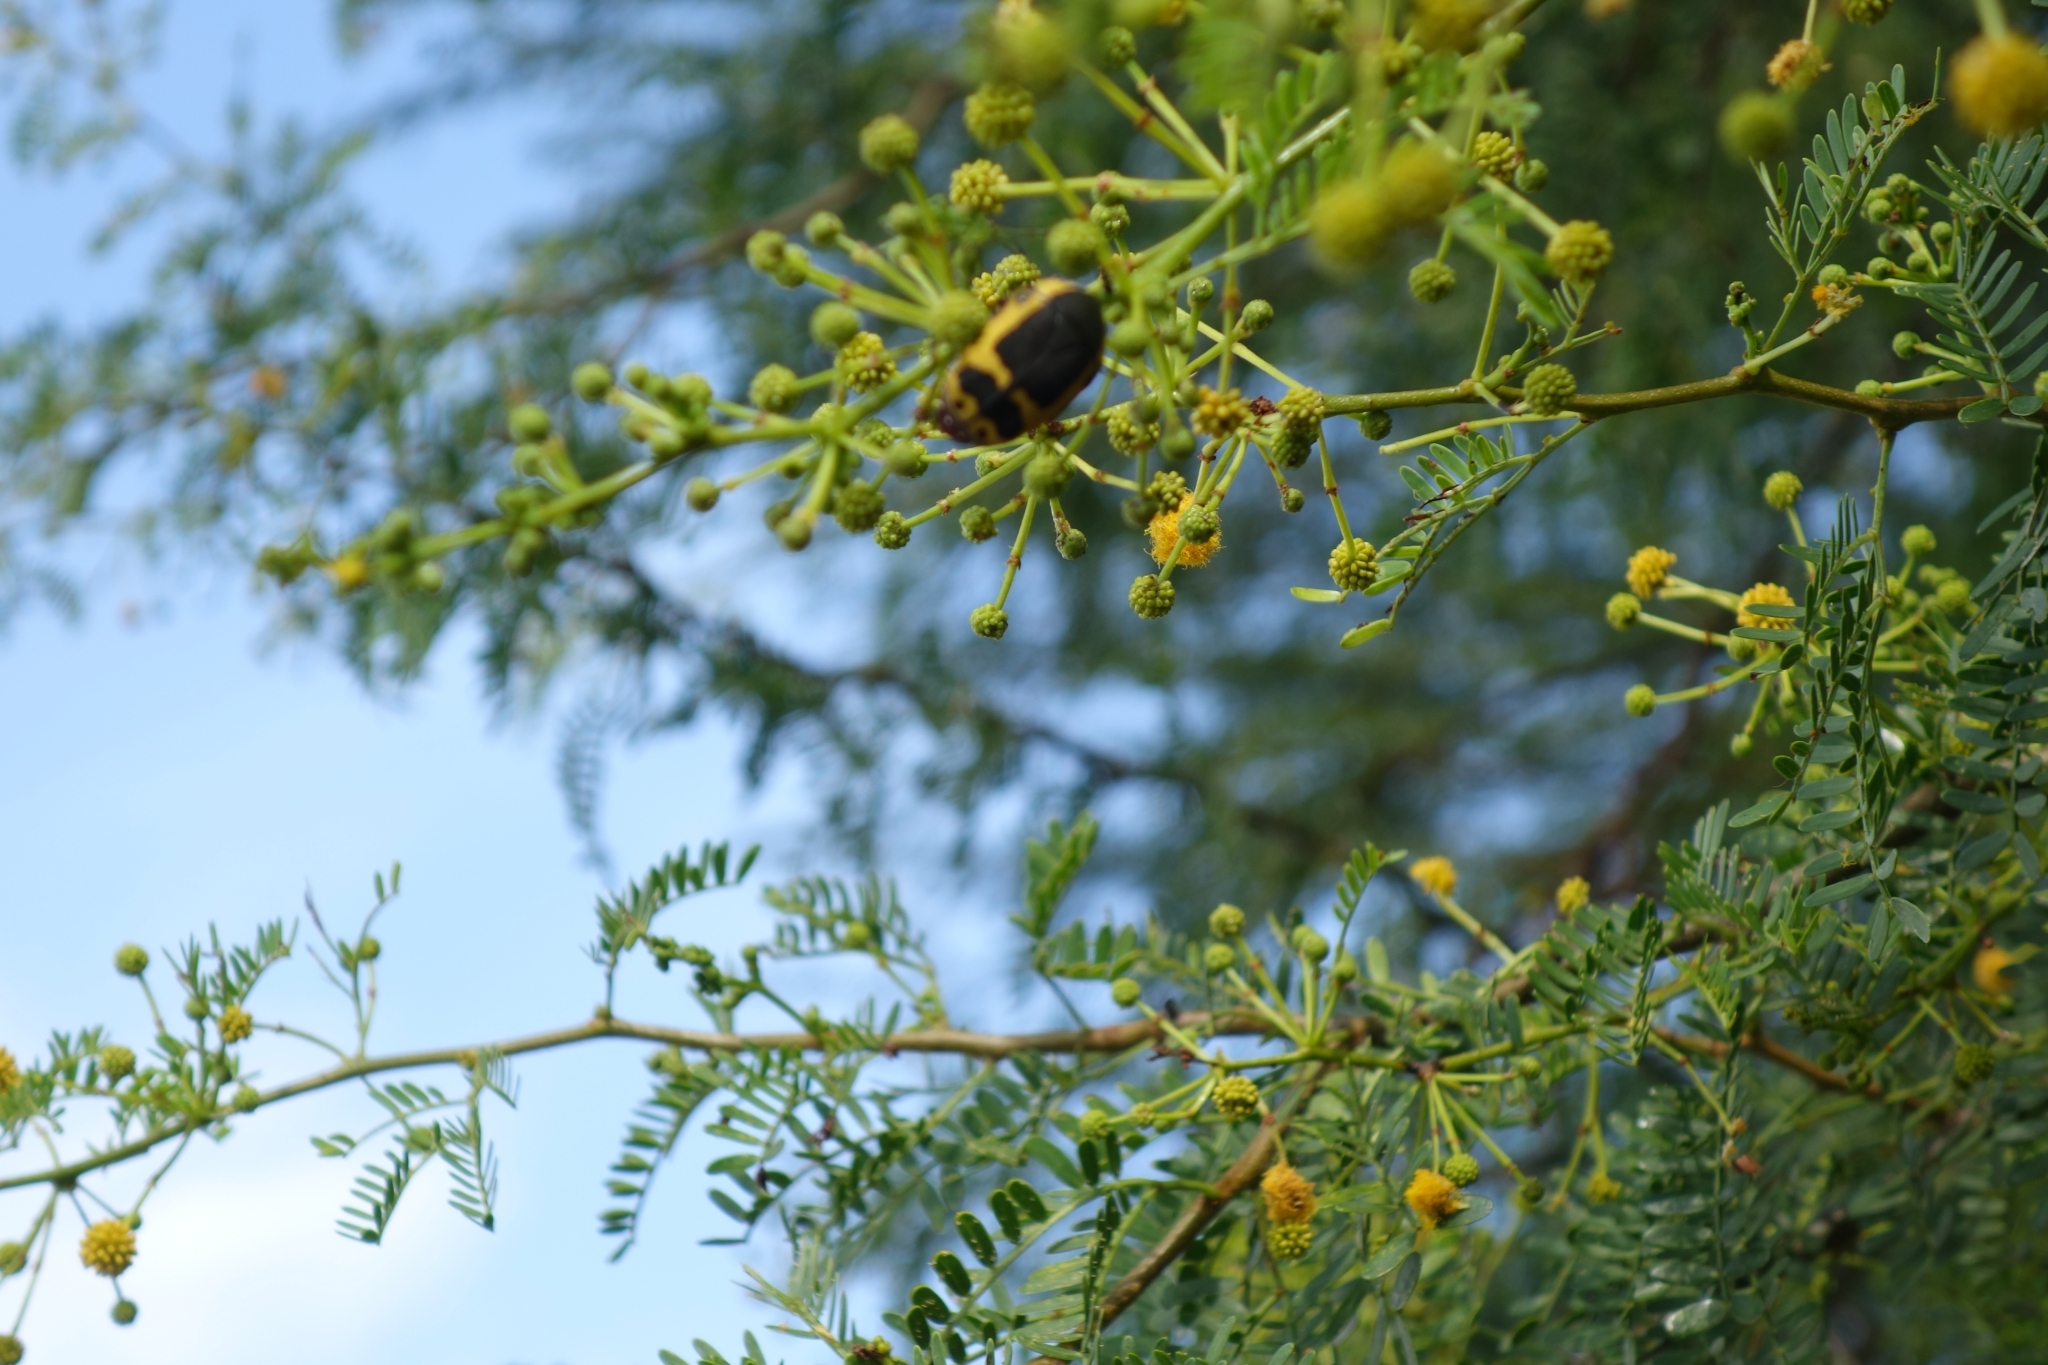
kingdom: Animalia
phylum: Arthropoda
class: Insecta
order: Coleoptera
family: Scarabaeidae
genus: Pachnoda
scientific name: Pachnoda sinuata
